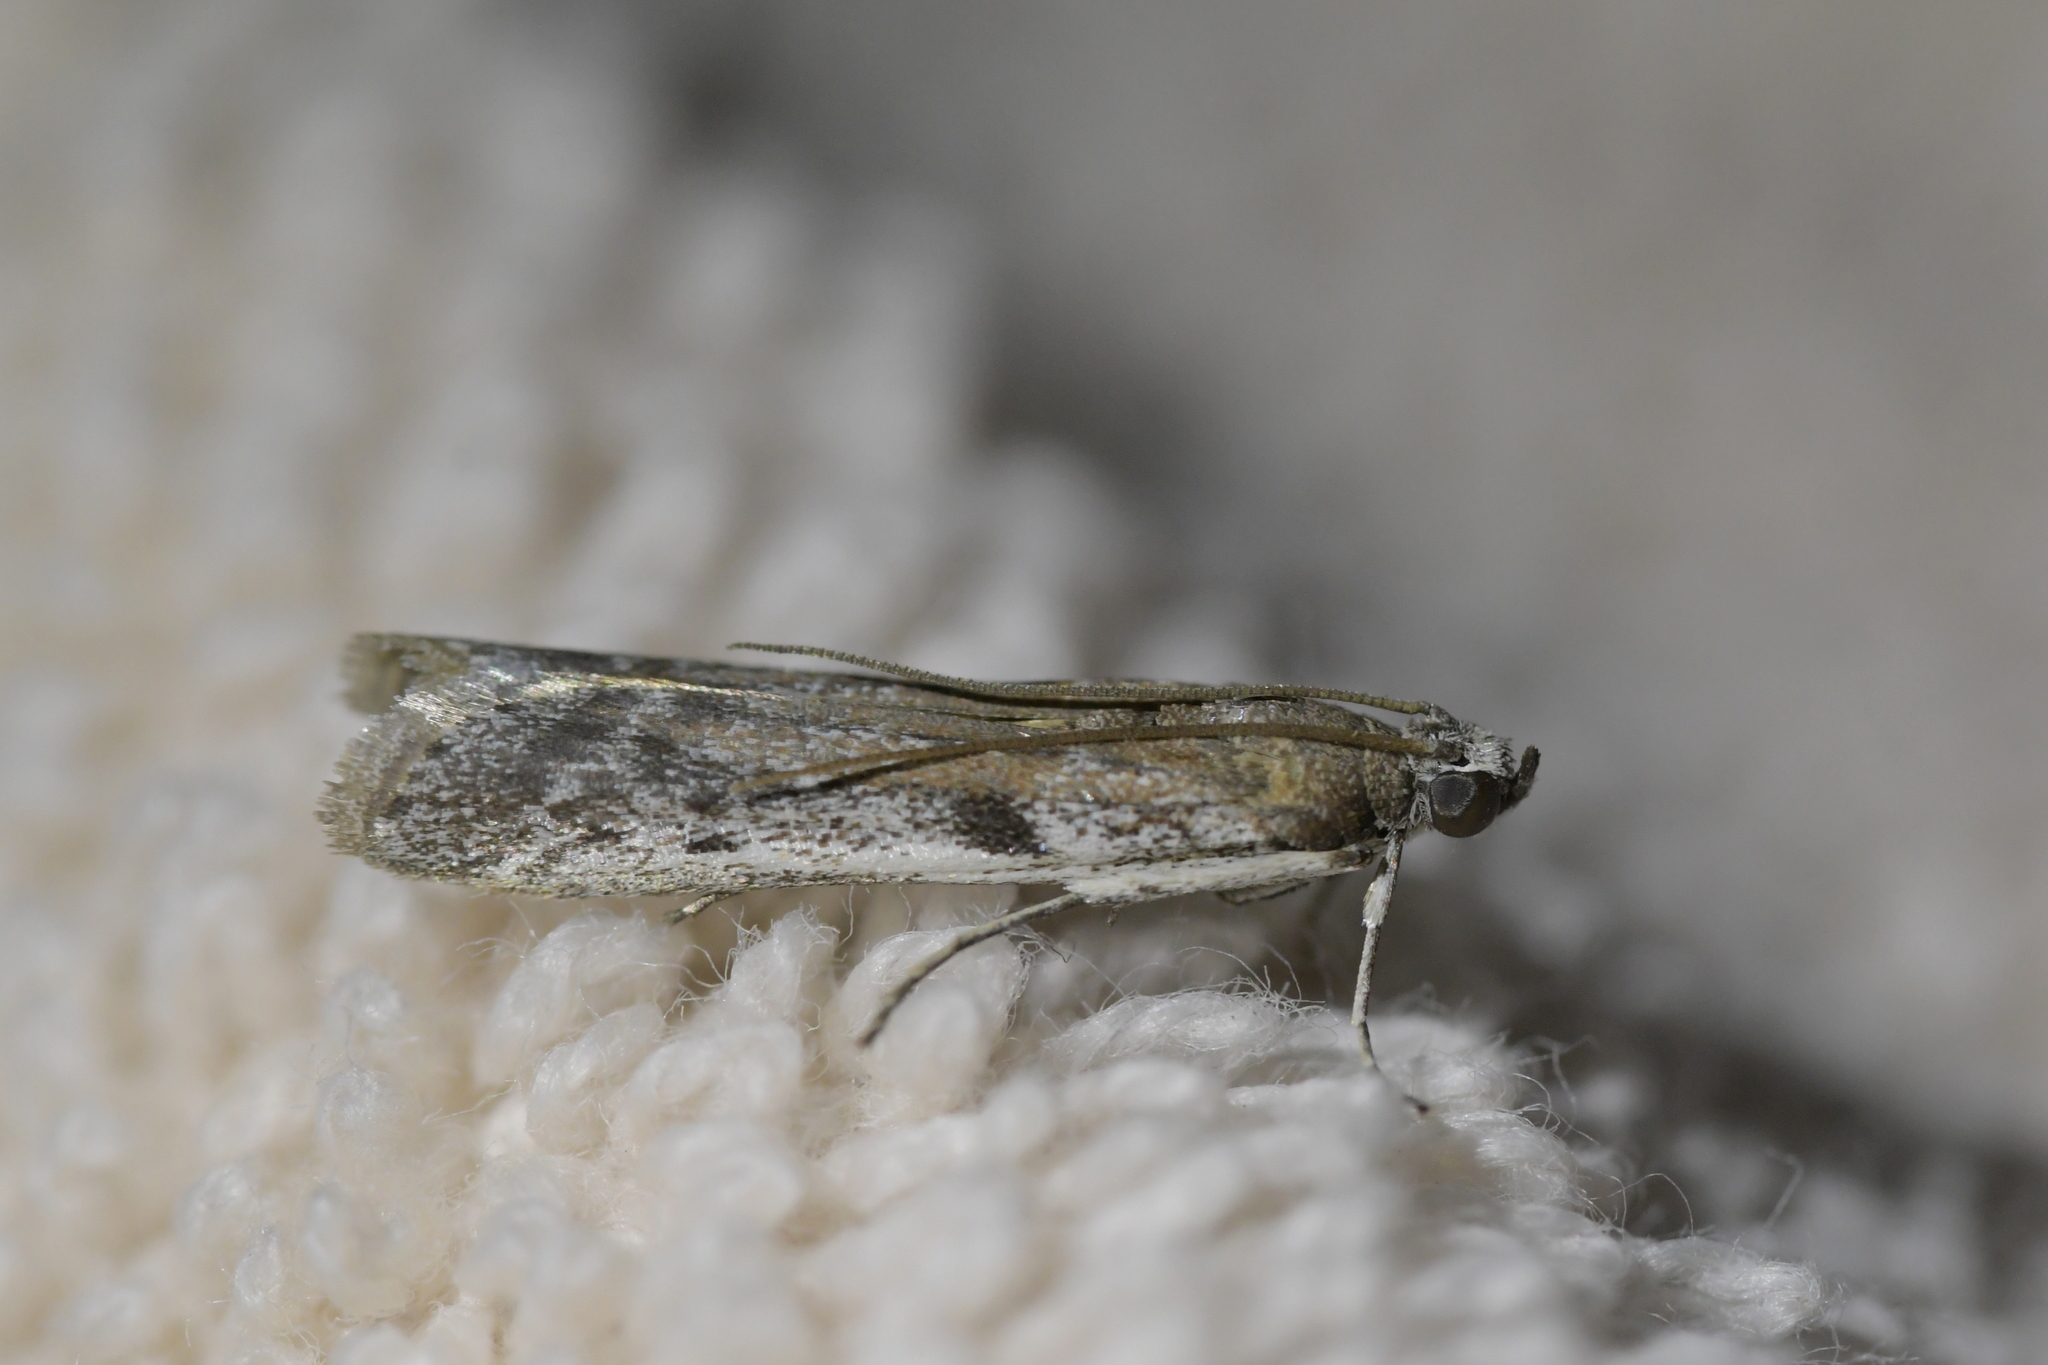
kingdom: Animalia
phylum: Arthropoda
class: Insecta
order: Lepidoptera
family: Pyralidae
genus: Patagoniodes
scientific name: Patagoniodes farinaria
